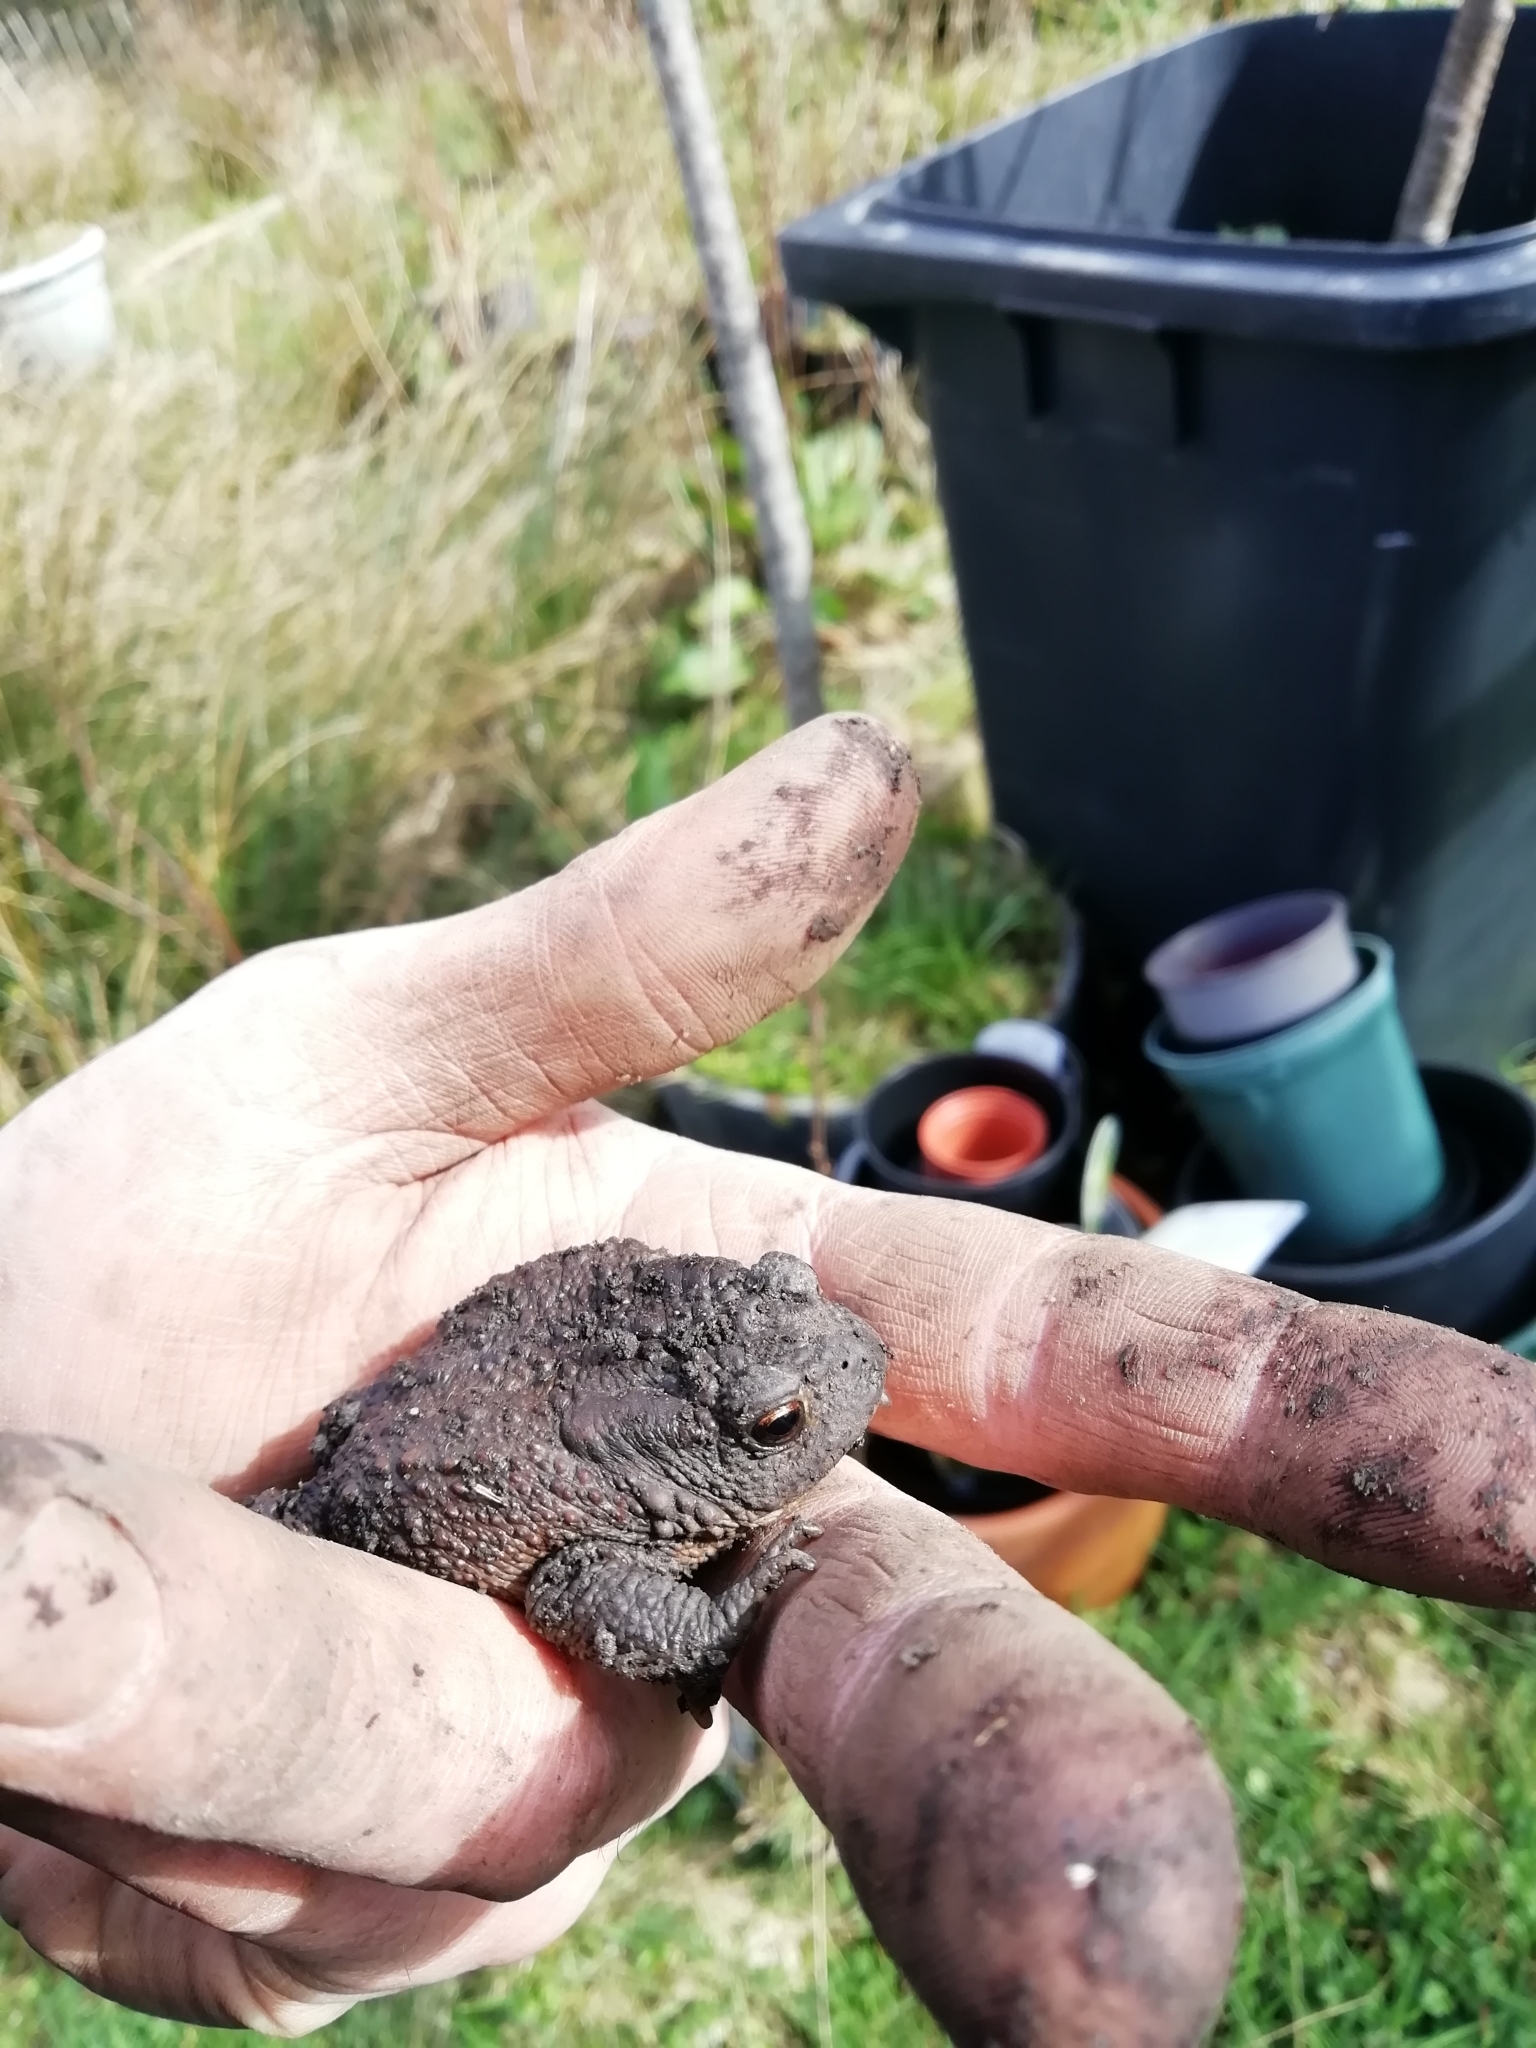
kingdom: Animalia
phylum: Chordata
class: Amphibia
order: Anura
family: Bufonidae
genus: Bufo
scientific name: Bufo bufo
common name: Common toad
